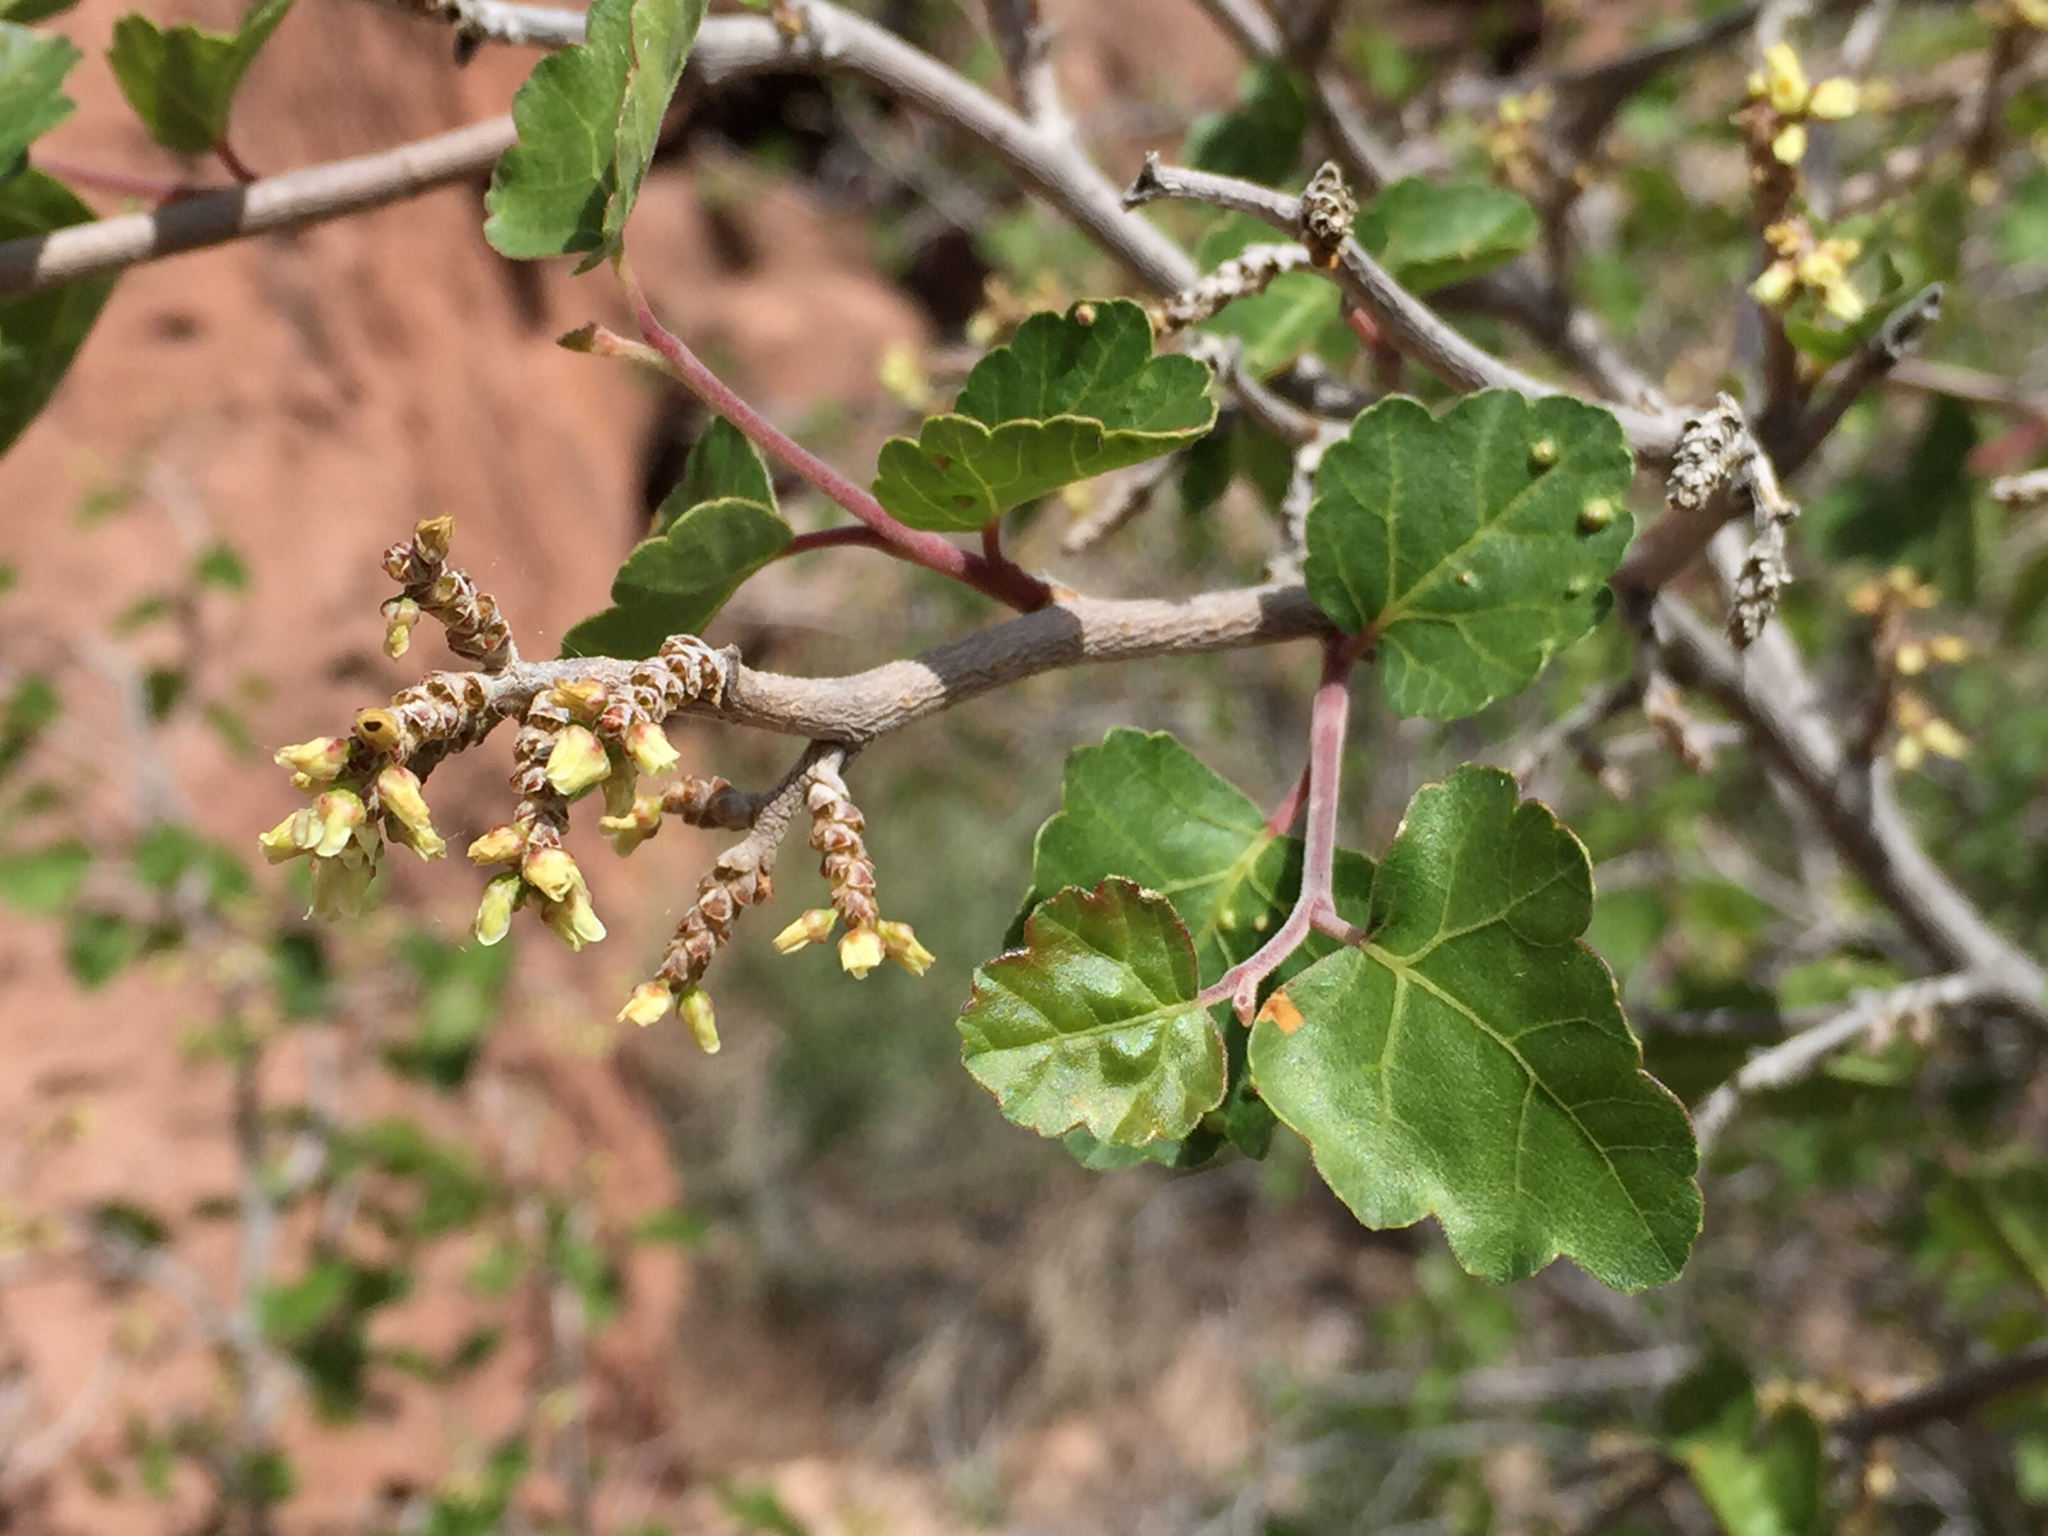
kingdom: Plantae
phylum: Tracheophyta
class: Magnoliopsida
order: Sapindales
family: Anacardiaceae
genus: Rhus
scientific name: Rhus trilobata
